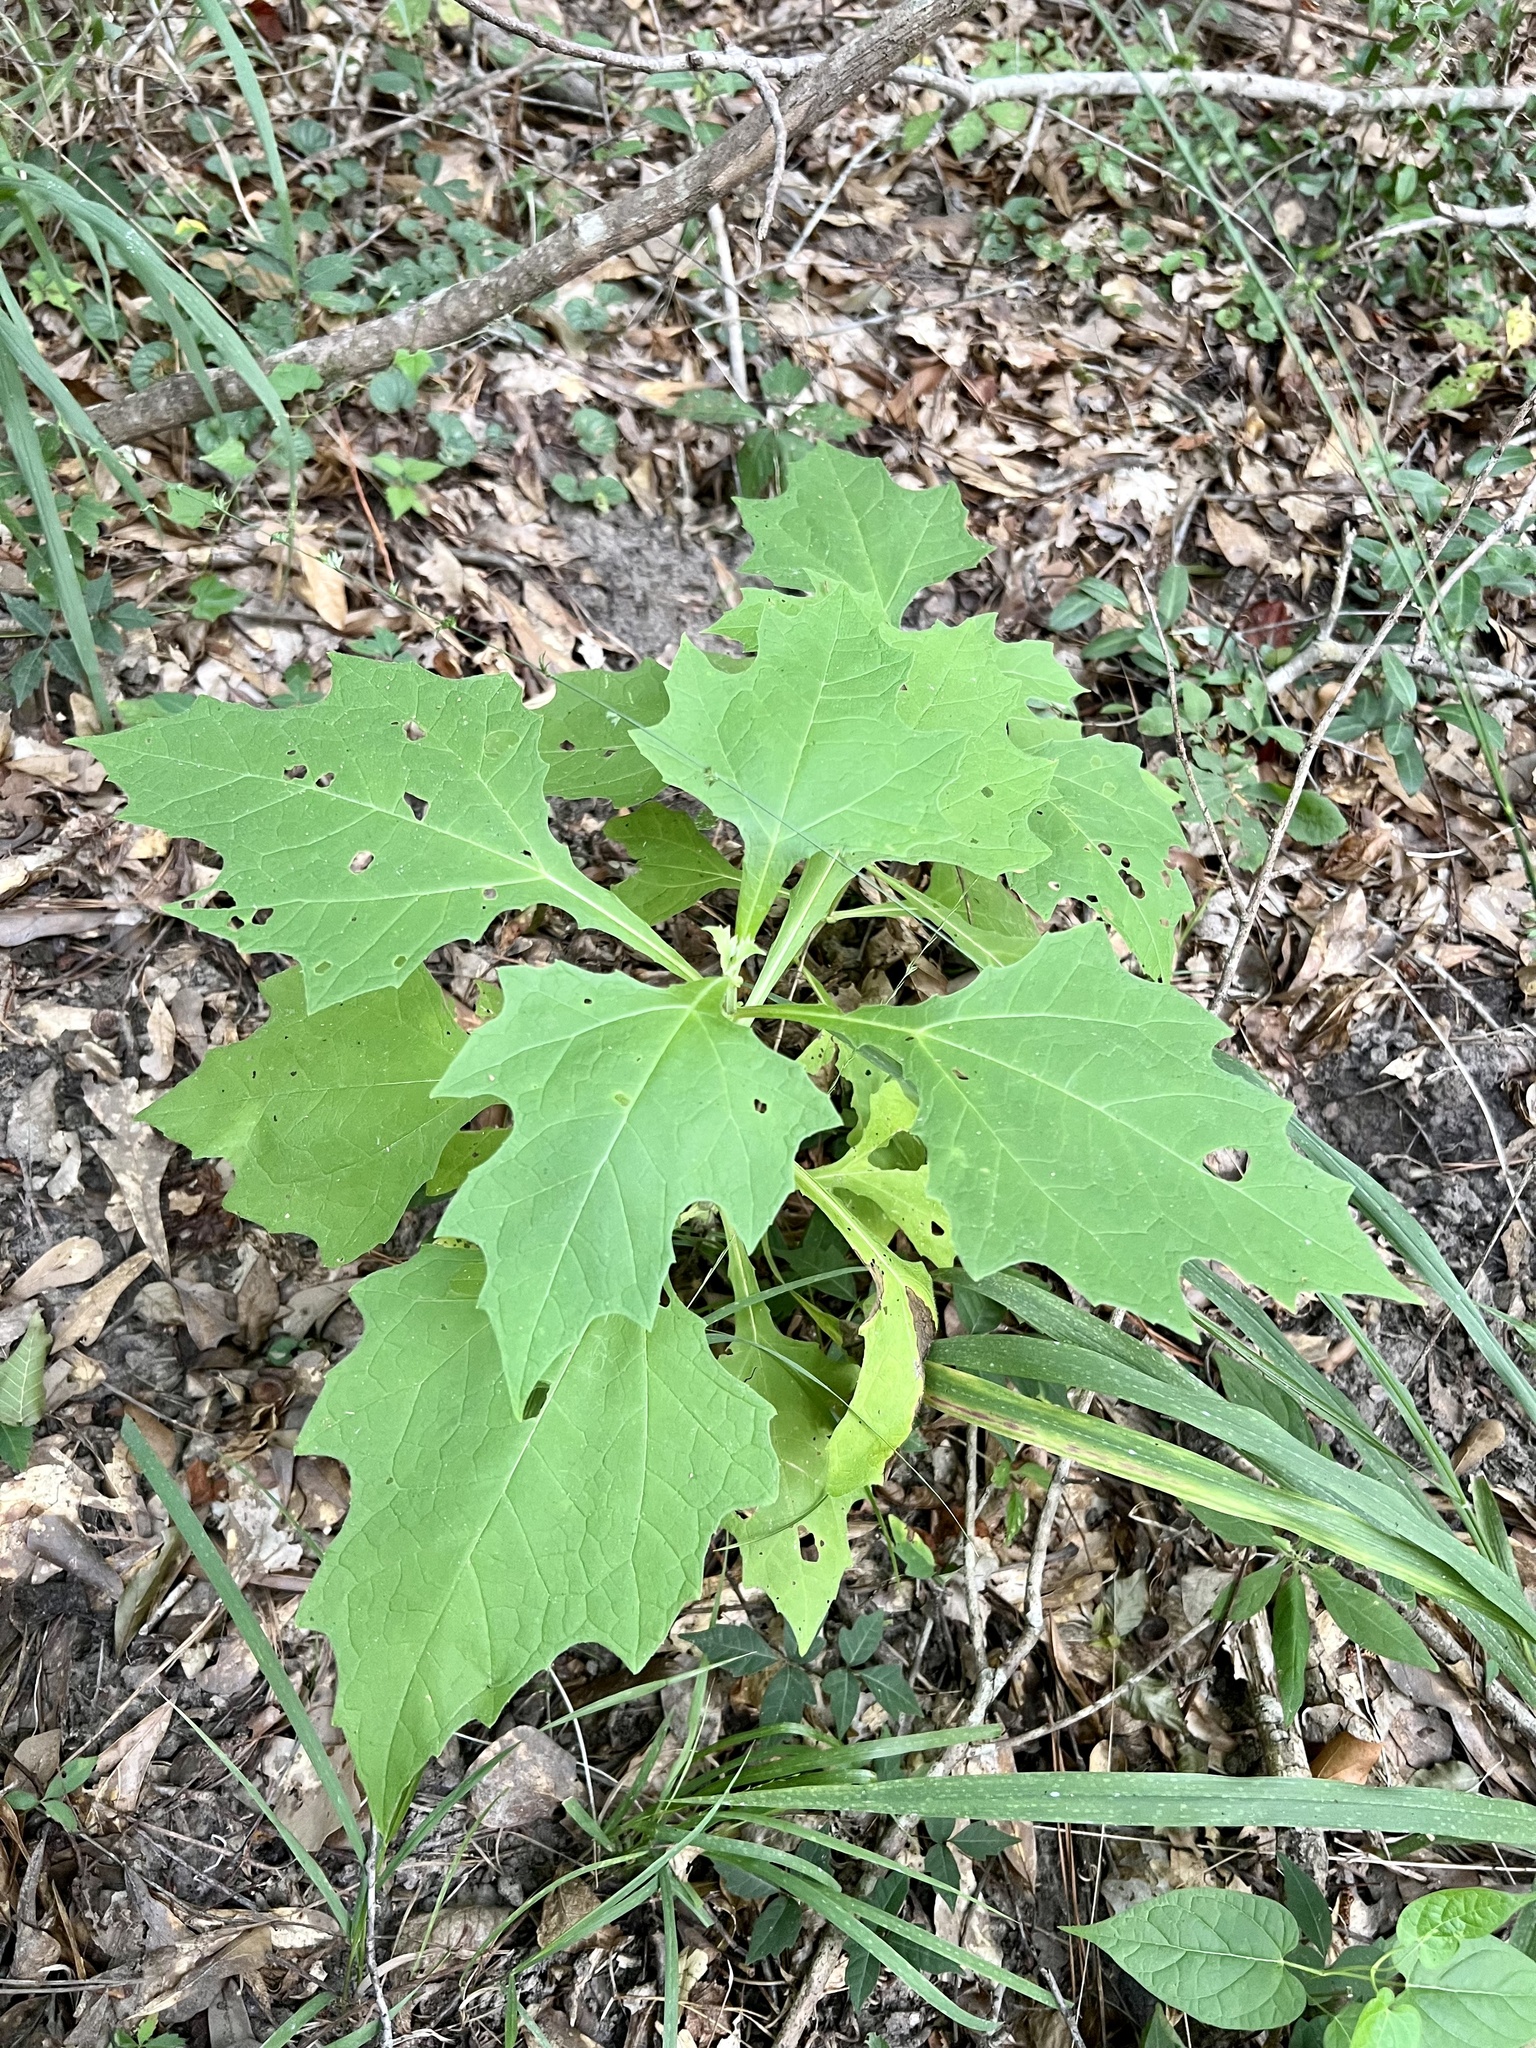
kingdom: Plantae
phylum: Tracheophyta
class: Magnoliopsida
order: Asterales
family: Asteraceae
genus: Smallanthus
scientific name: Smallanthus uvedalia
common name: Bear's-foot
